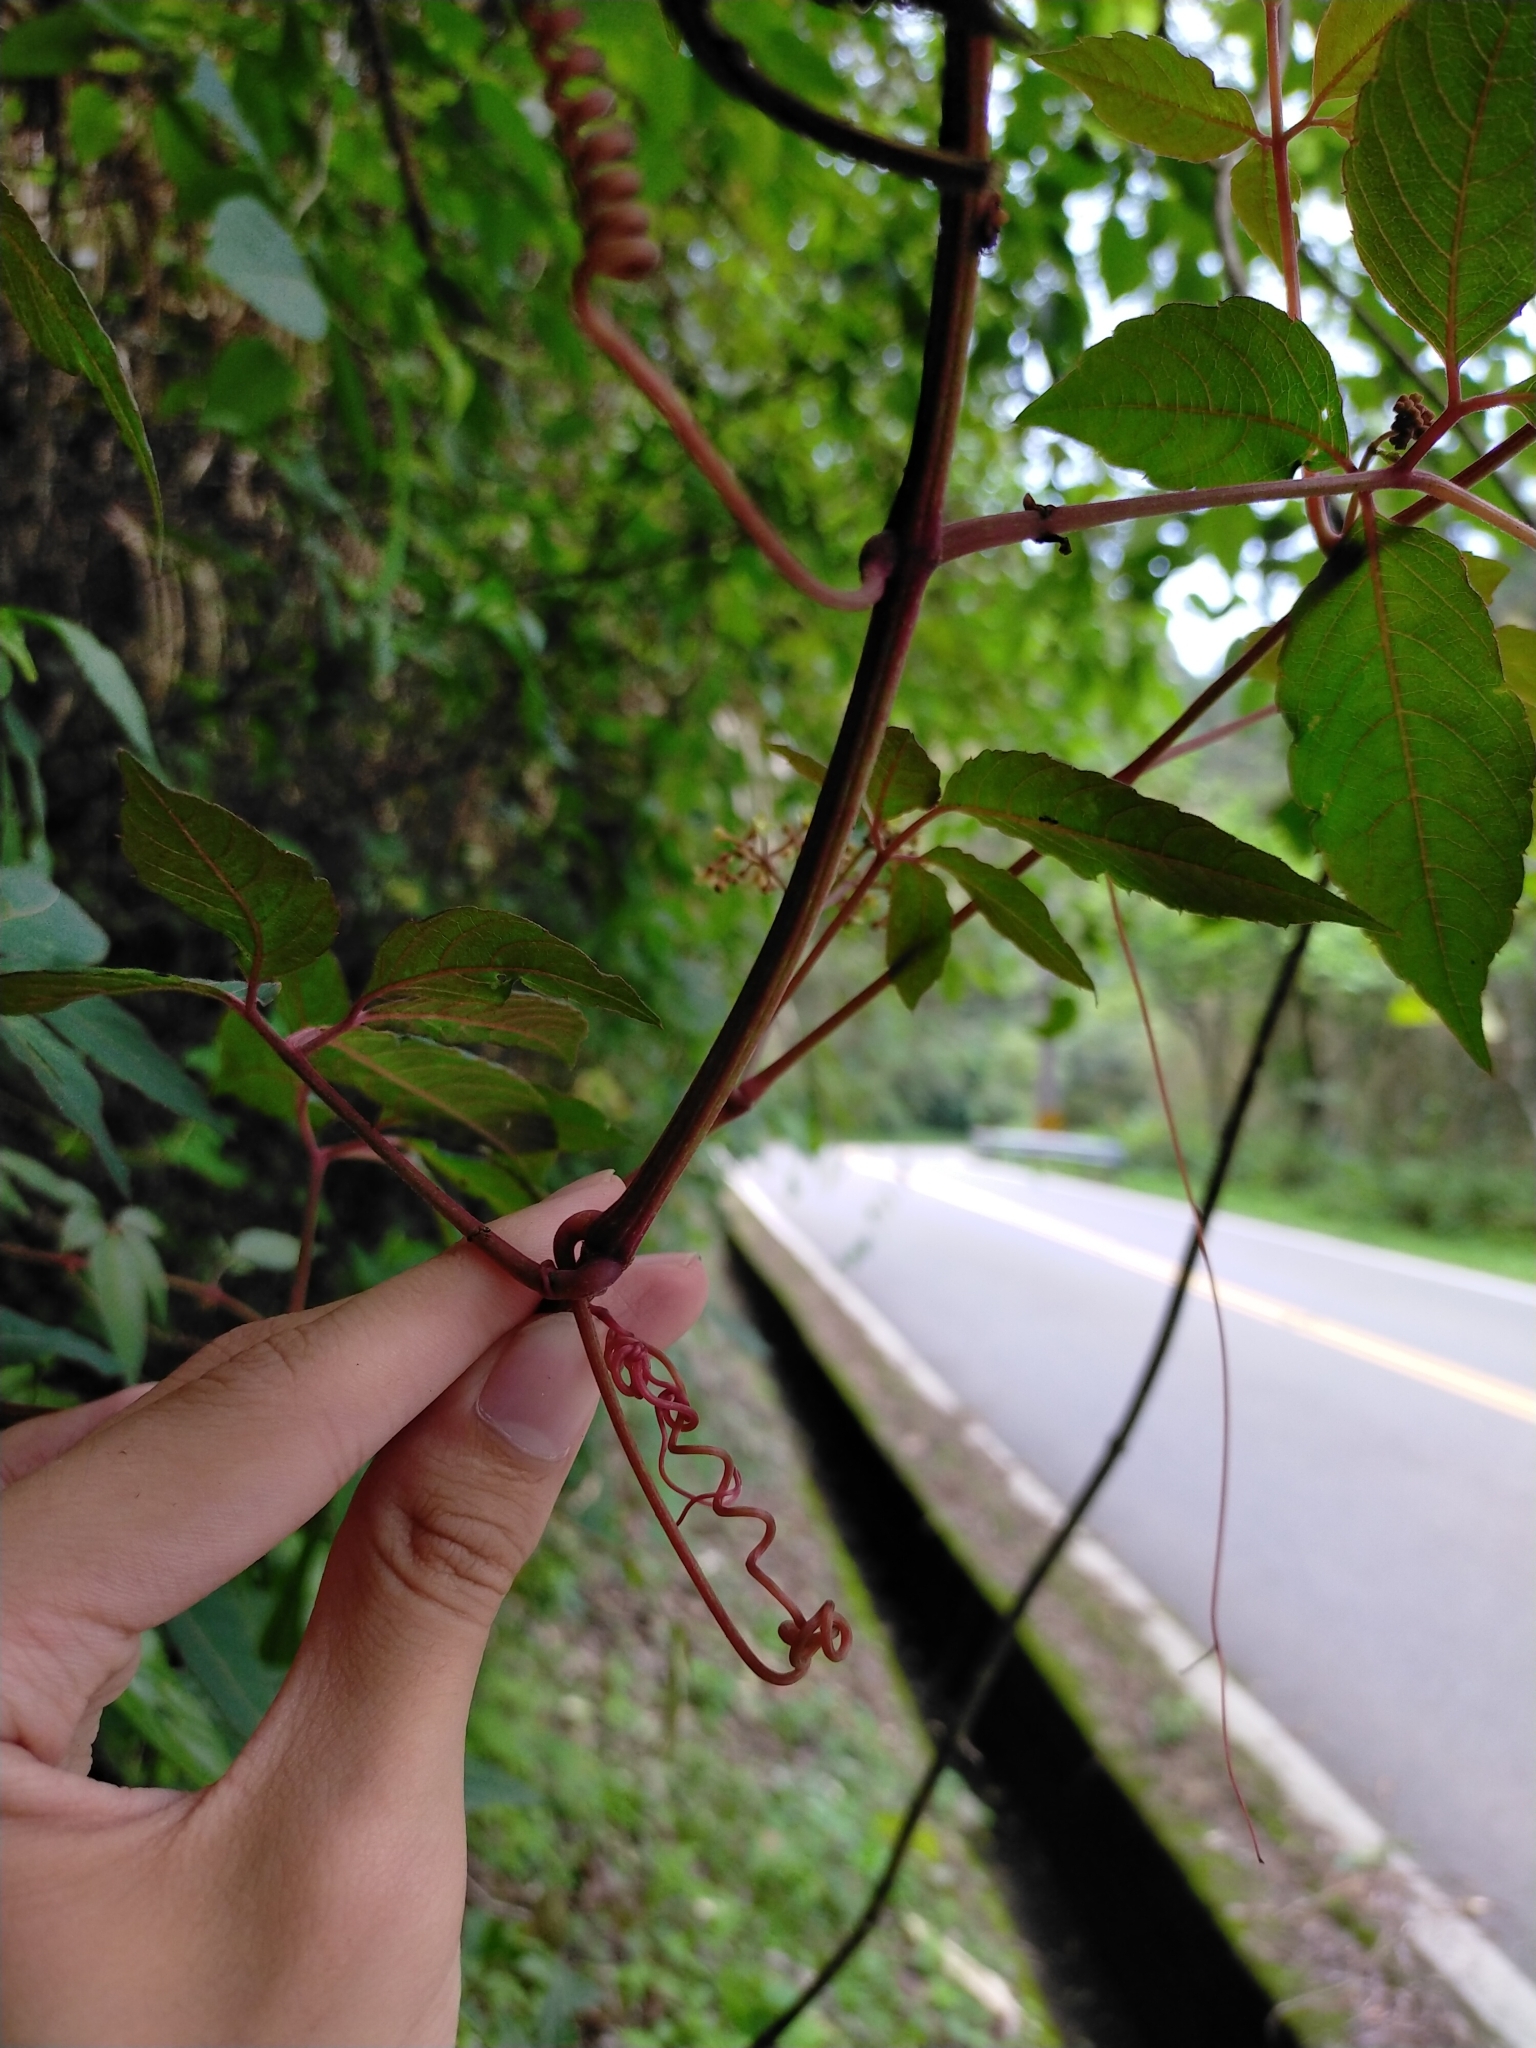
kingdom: Plantae
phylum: Tracheophyta
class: Magnoliopsida
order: Vitales
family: Vitaceae
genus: Causonis
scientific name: Causonis japonica
